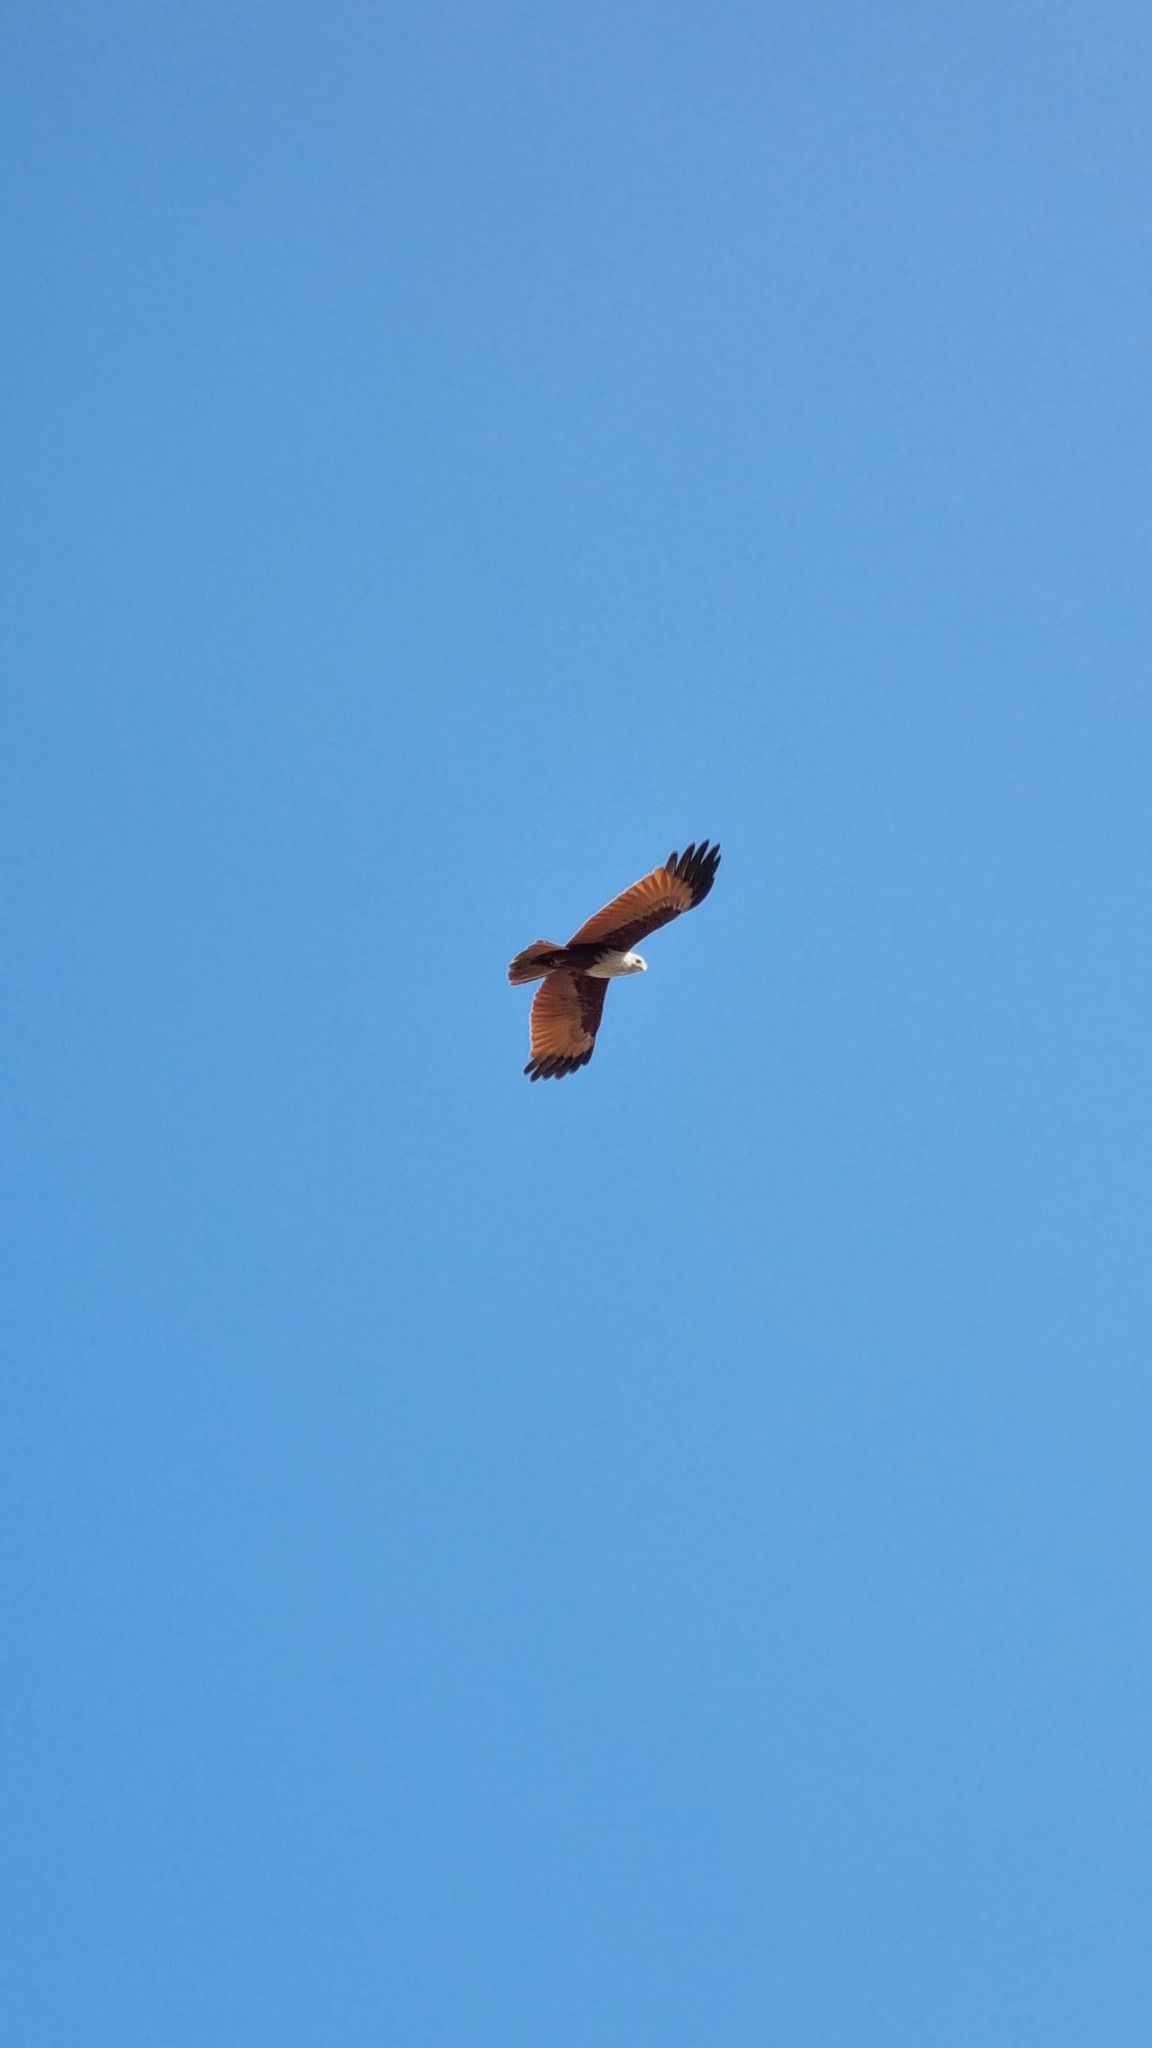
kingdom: Animalia
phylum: Chordata
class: Aves
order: Accipitriformes
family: Accipitridae
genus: Haliastur
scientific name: Haliastur indus
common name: Brahminy kite
